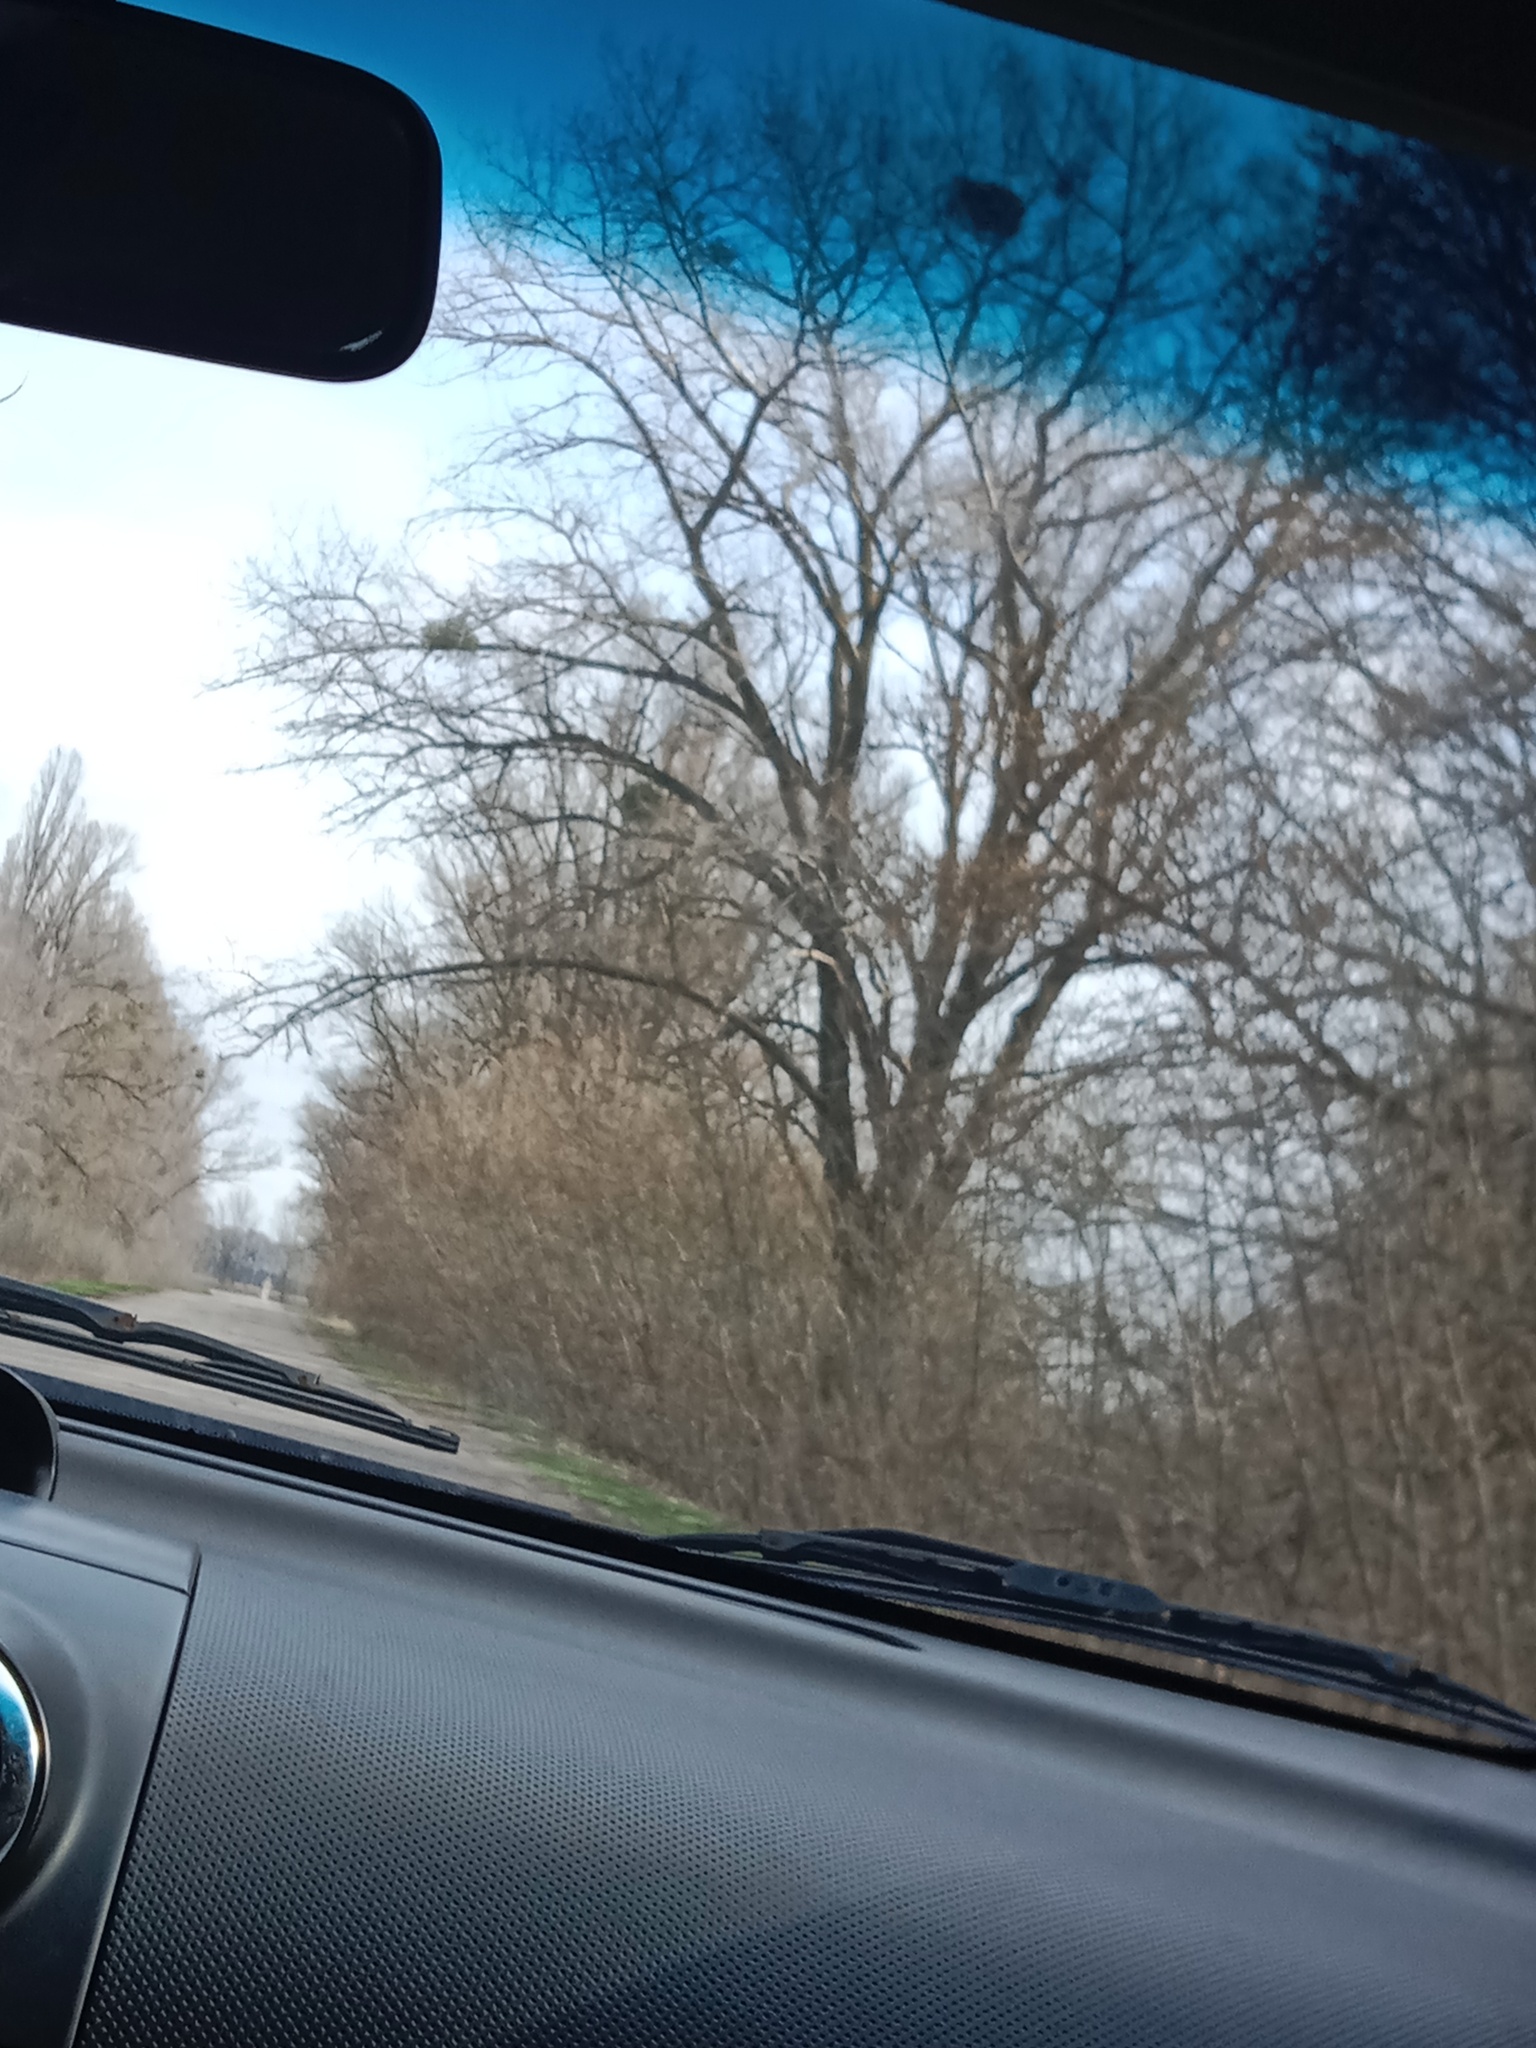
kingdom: Plantae
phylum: Tracheophyta
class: Magnoliopsida
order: Santalales
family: Viscaceae
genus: Viscum
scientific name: Viscum album
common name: Mistletoe
